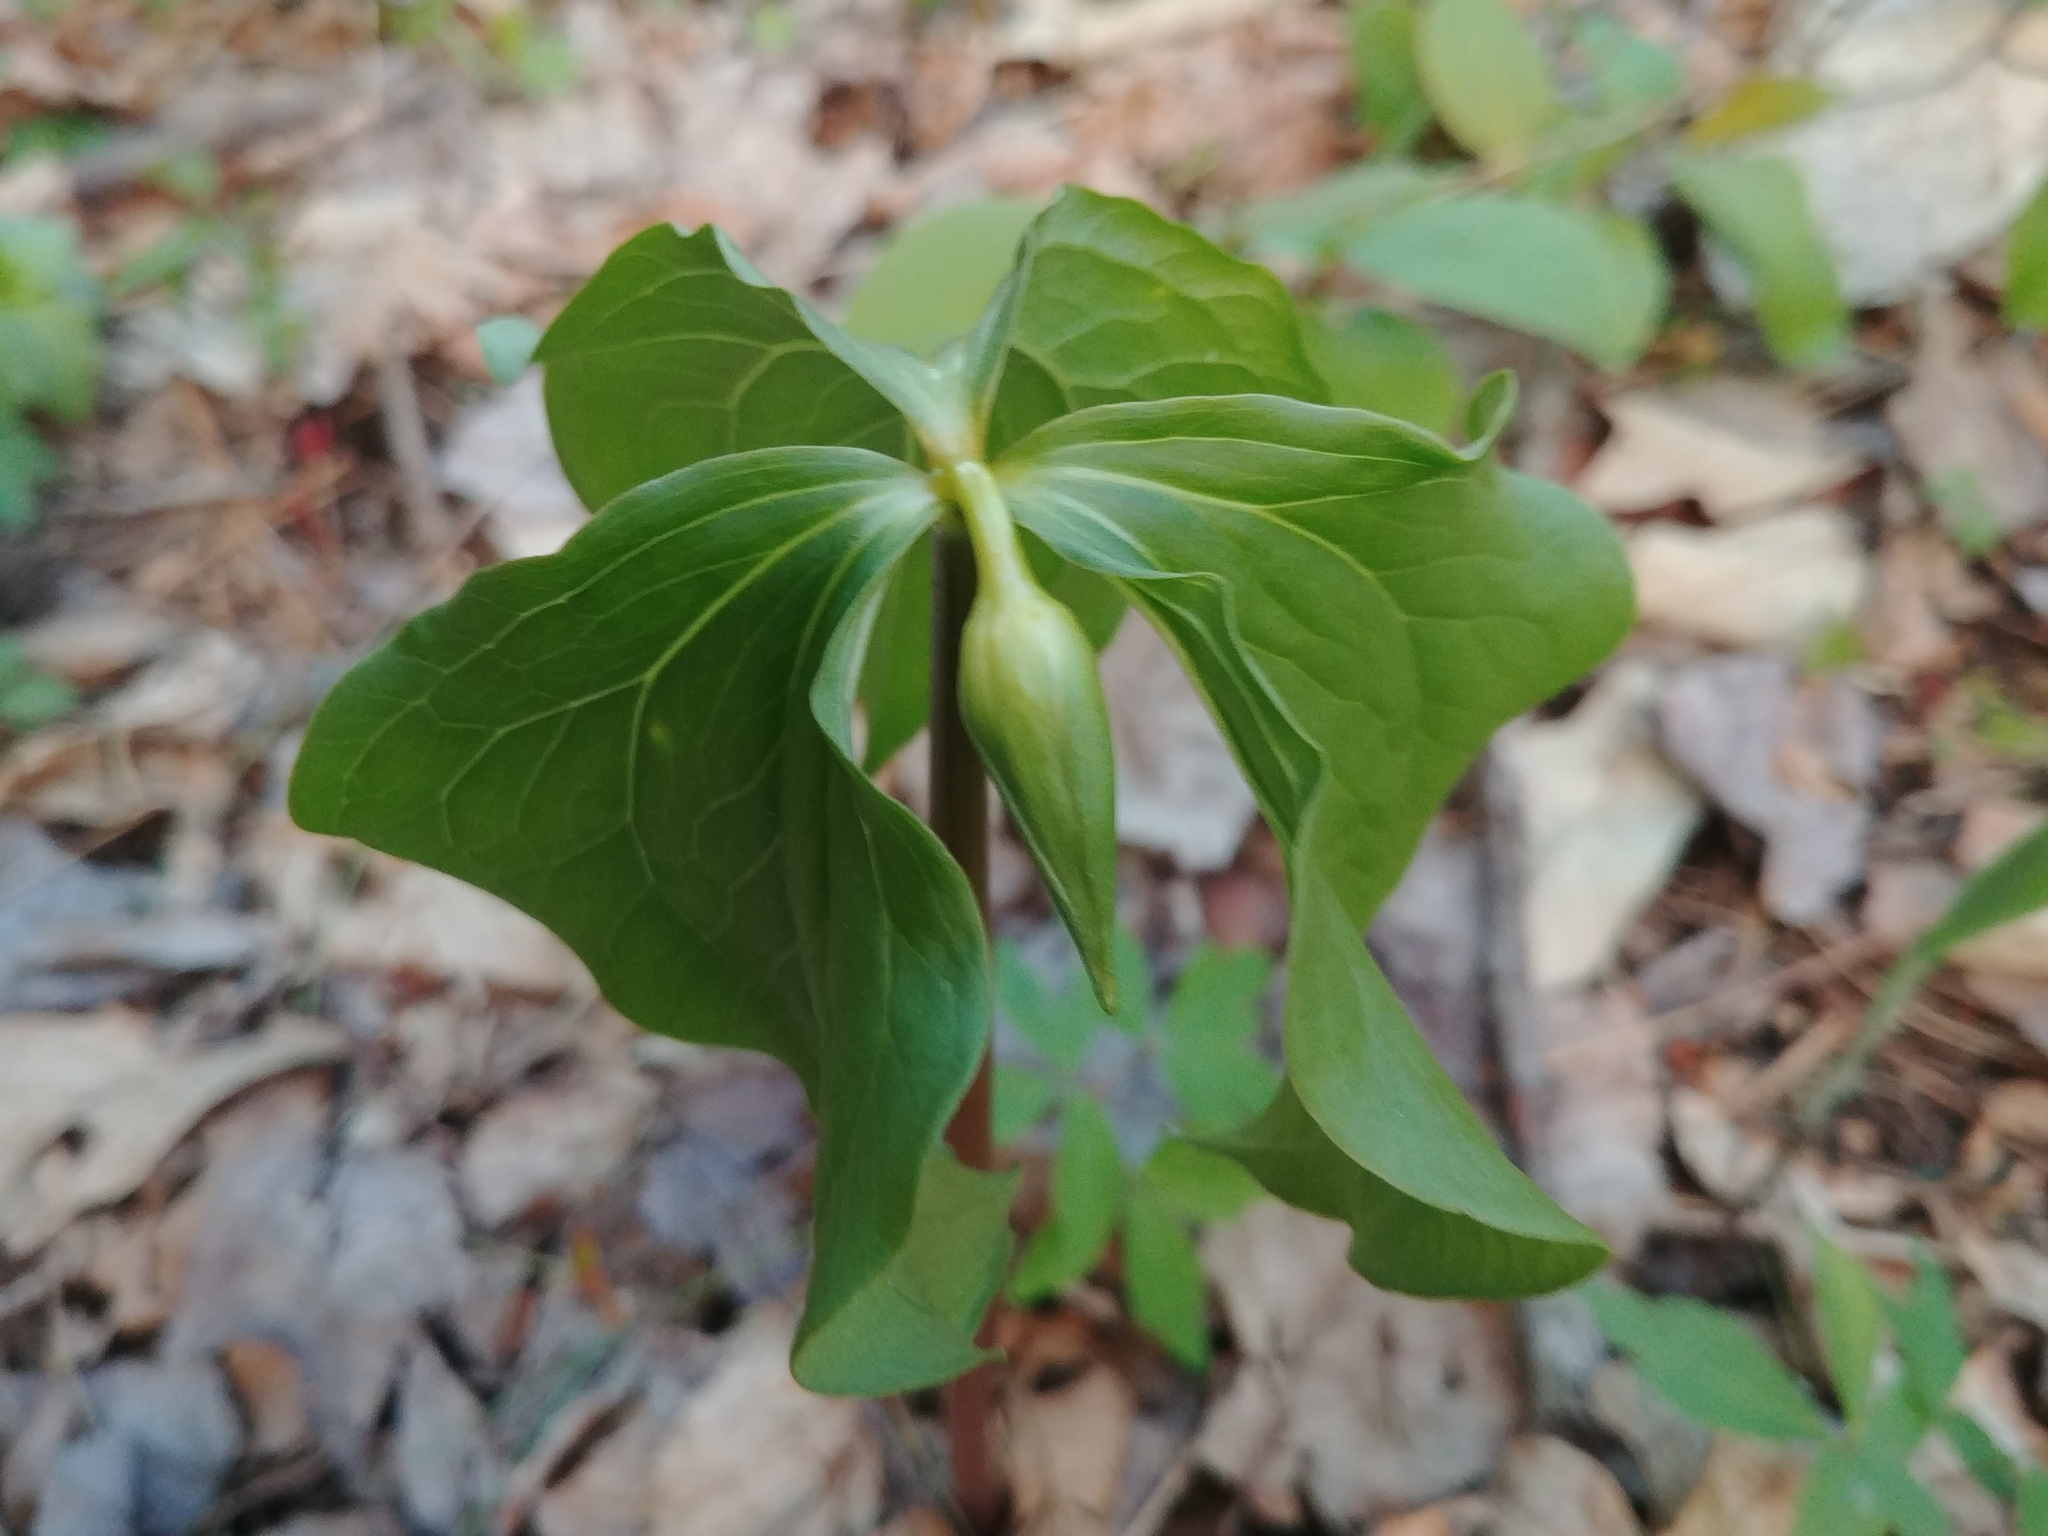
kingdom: Plantae
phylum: Tracheophyta
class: Liliopsida
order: Liliales
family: Melanthiaceae
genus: Trillium
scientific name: Trillium cernuum
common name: Nodding trillium
